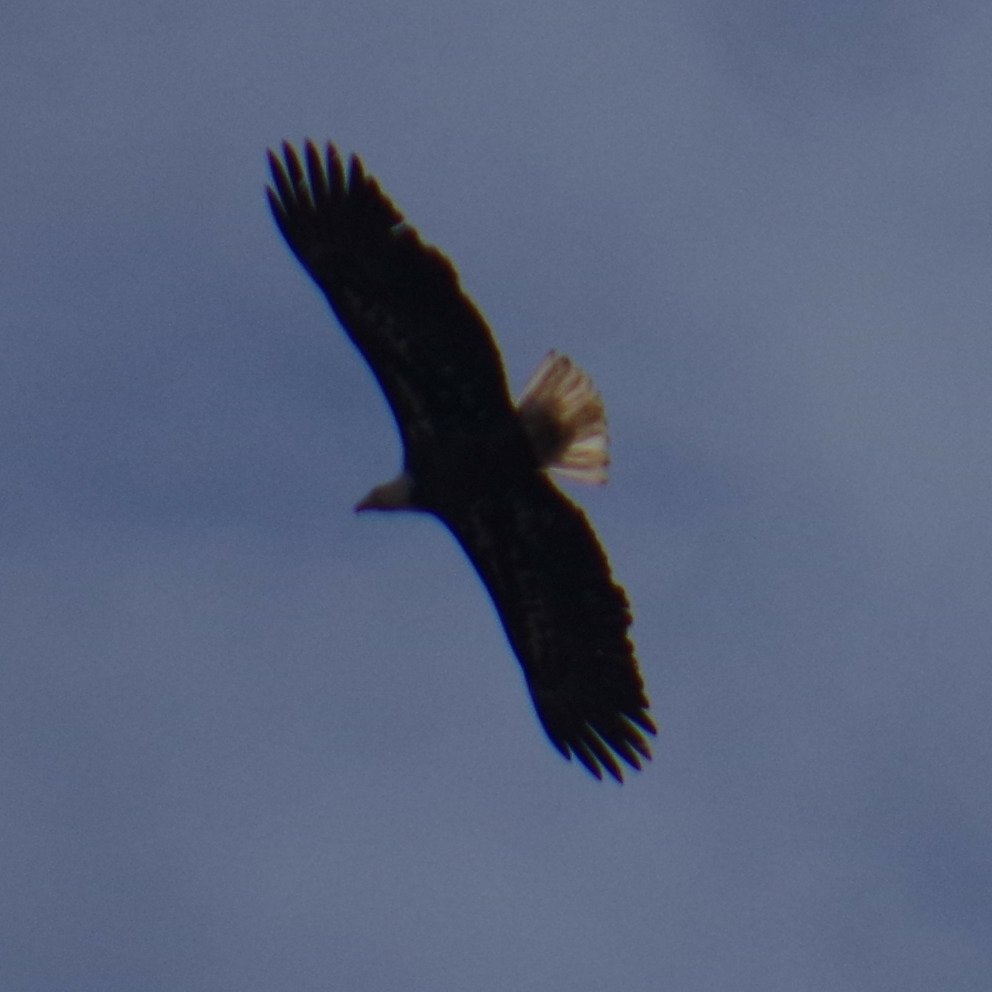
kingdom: Animalia
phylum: Chordata
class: Aves
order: Accipitriformes
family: Accipitridae
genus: Haliaeetus
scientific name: Haliaeetus leucocephalus
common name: Bald eagle
